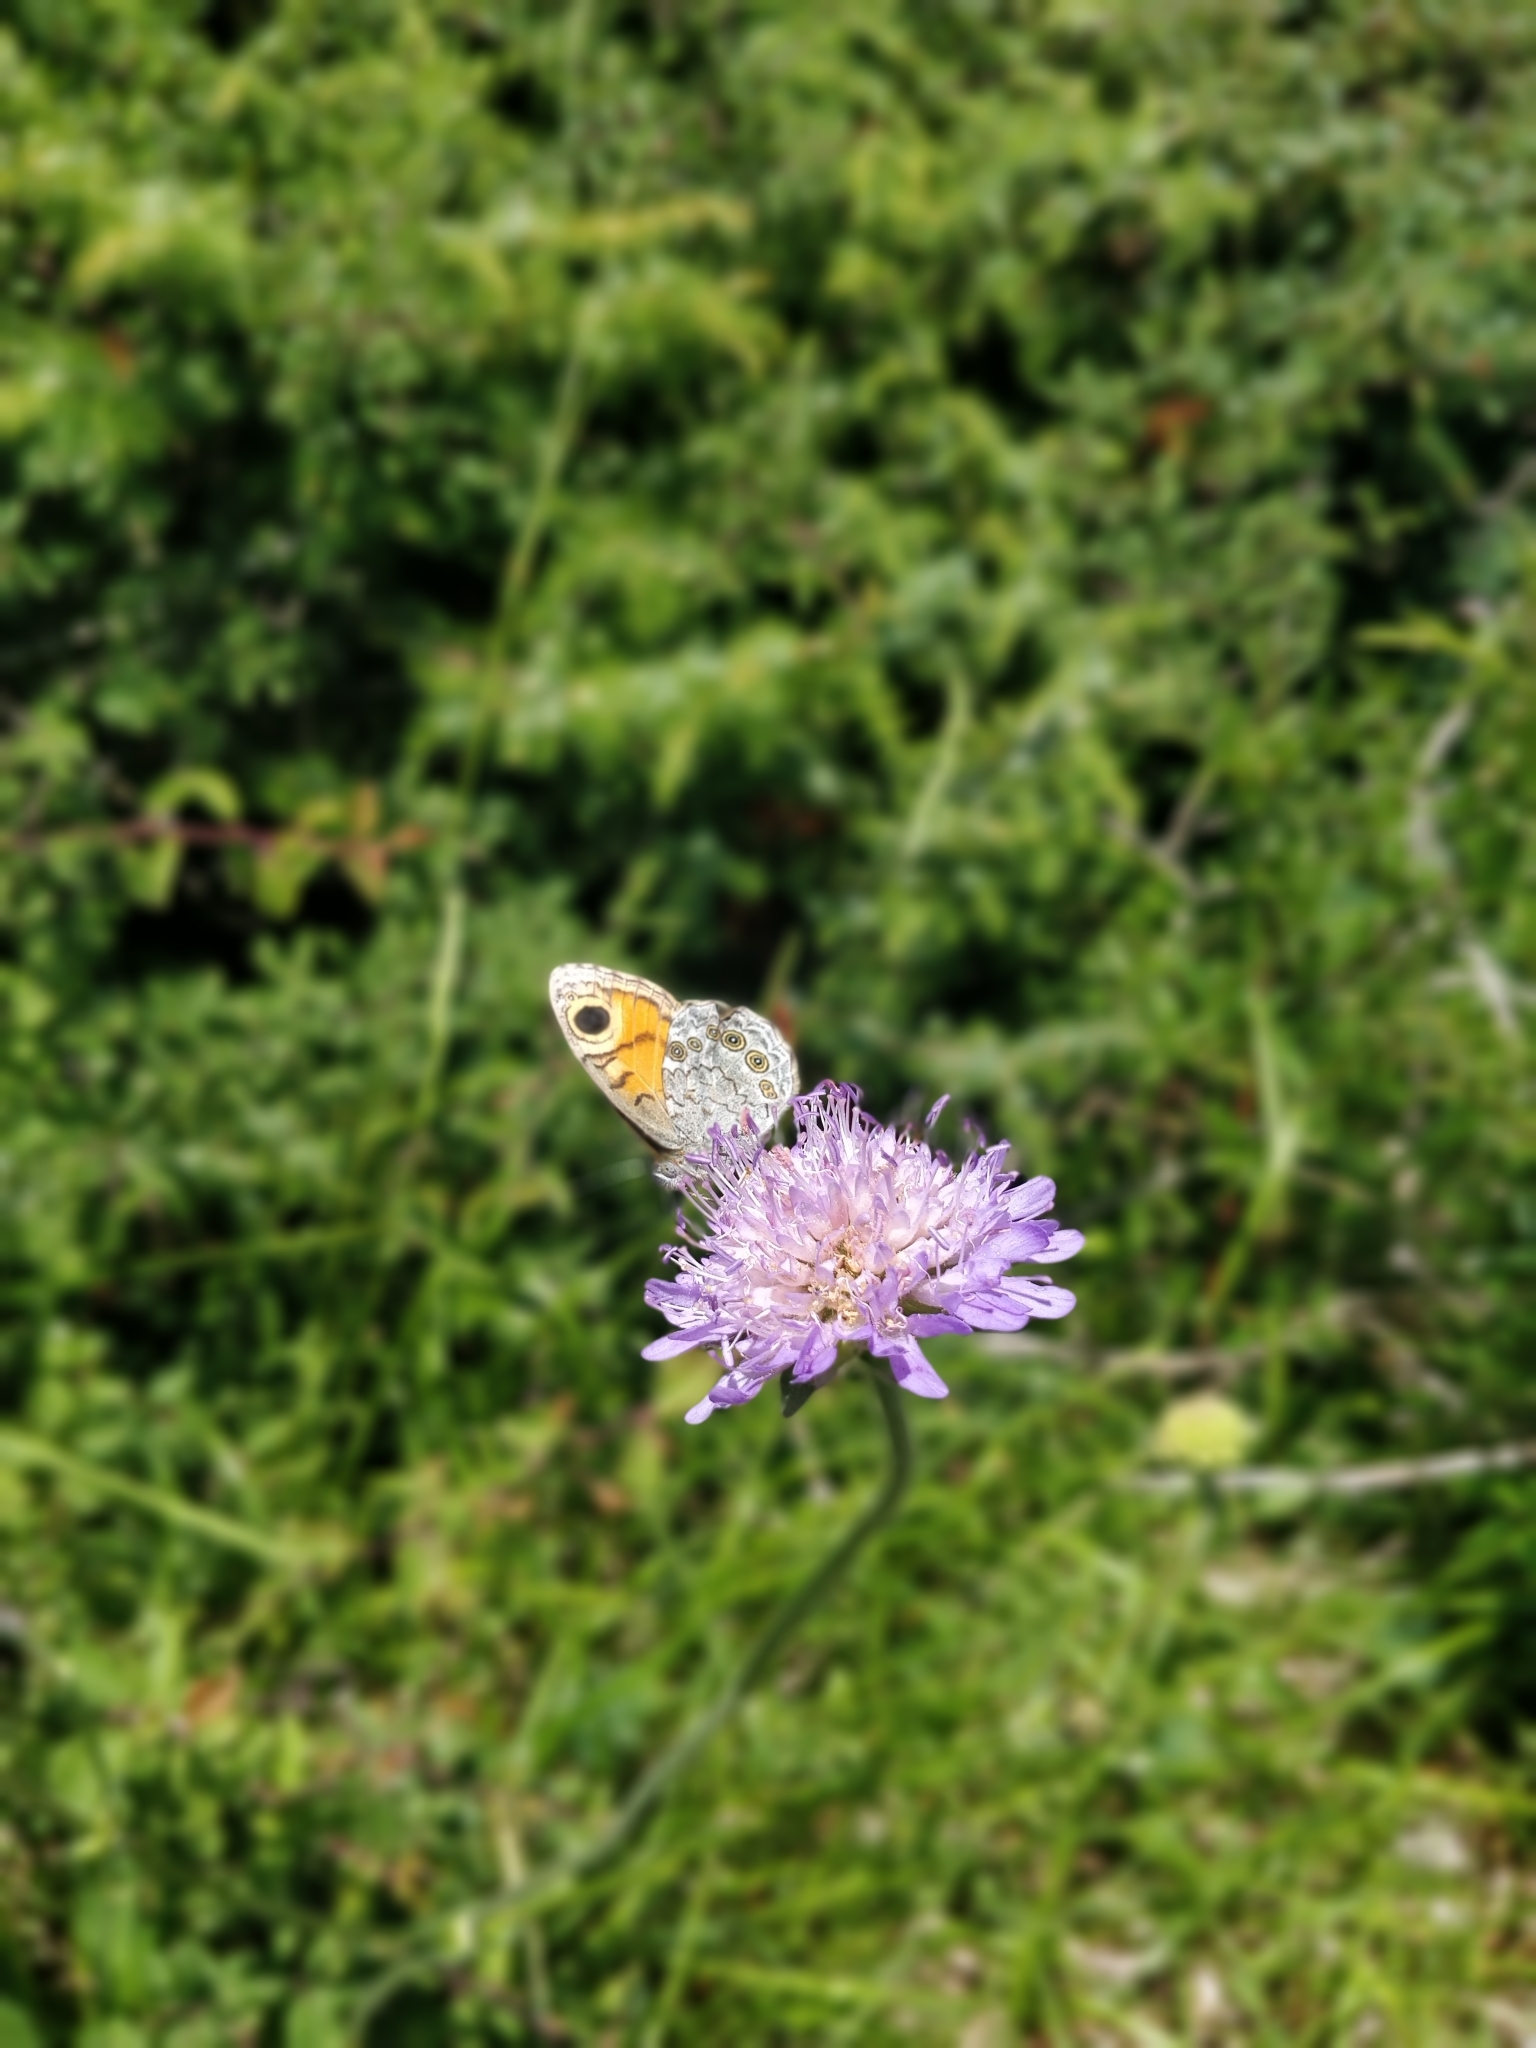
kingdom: Animalia
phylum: Arthropoda
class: Insecta
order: Lepidoptera
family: Nymphalidae
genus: Pararge
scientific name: Pararge Lasiommata maera
